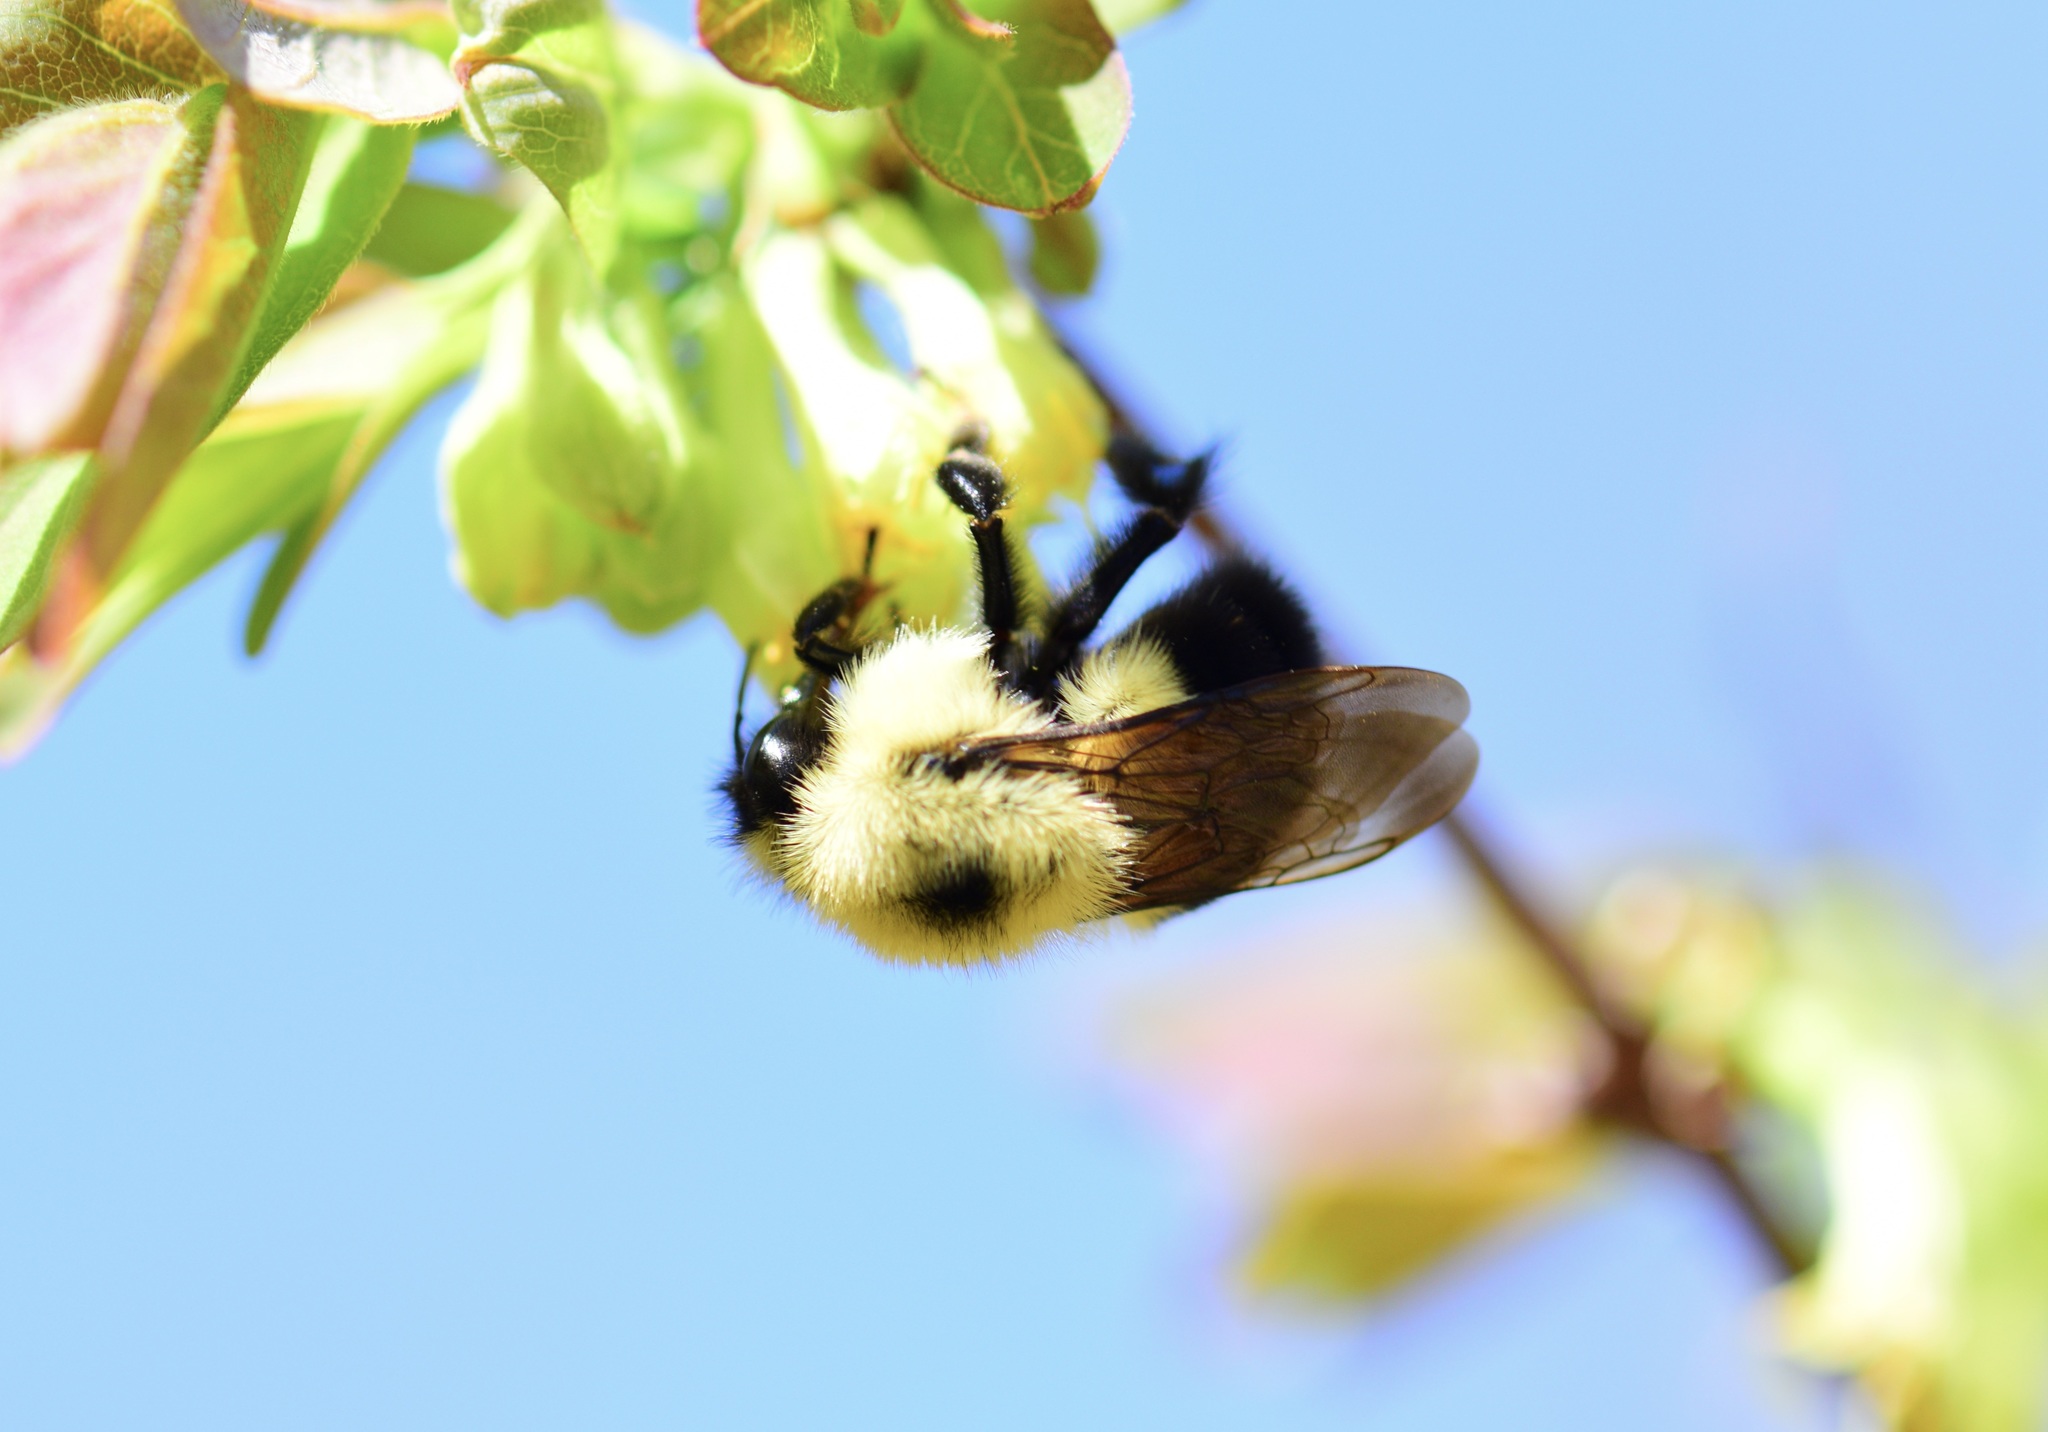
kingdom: Animalia
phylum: Arthropoda
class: Insecta
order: Hymenoptera
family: Apidae
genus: Bombus
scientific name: Bombus bimaculatus
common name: Two-spotted bumble bee
